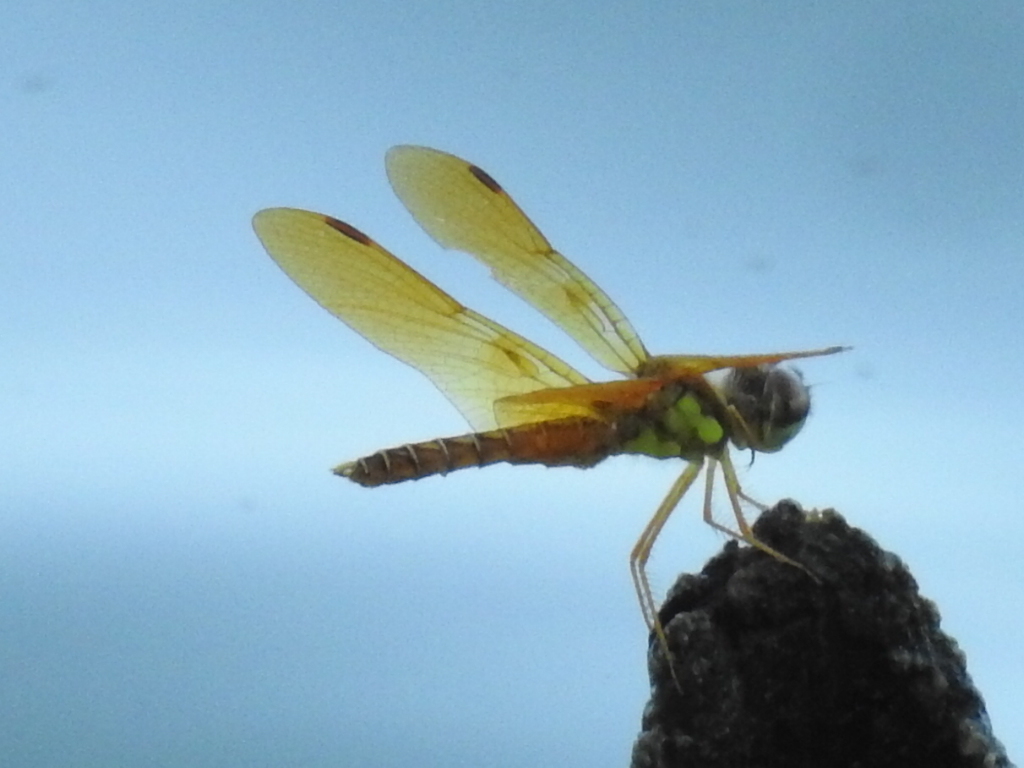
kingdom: Animalia
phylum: Arthropoda
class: Insecta
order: Odonata
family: Libellulidae
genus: Perithemis
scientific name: Perithemis tenera
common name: Eastern amberwing
